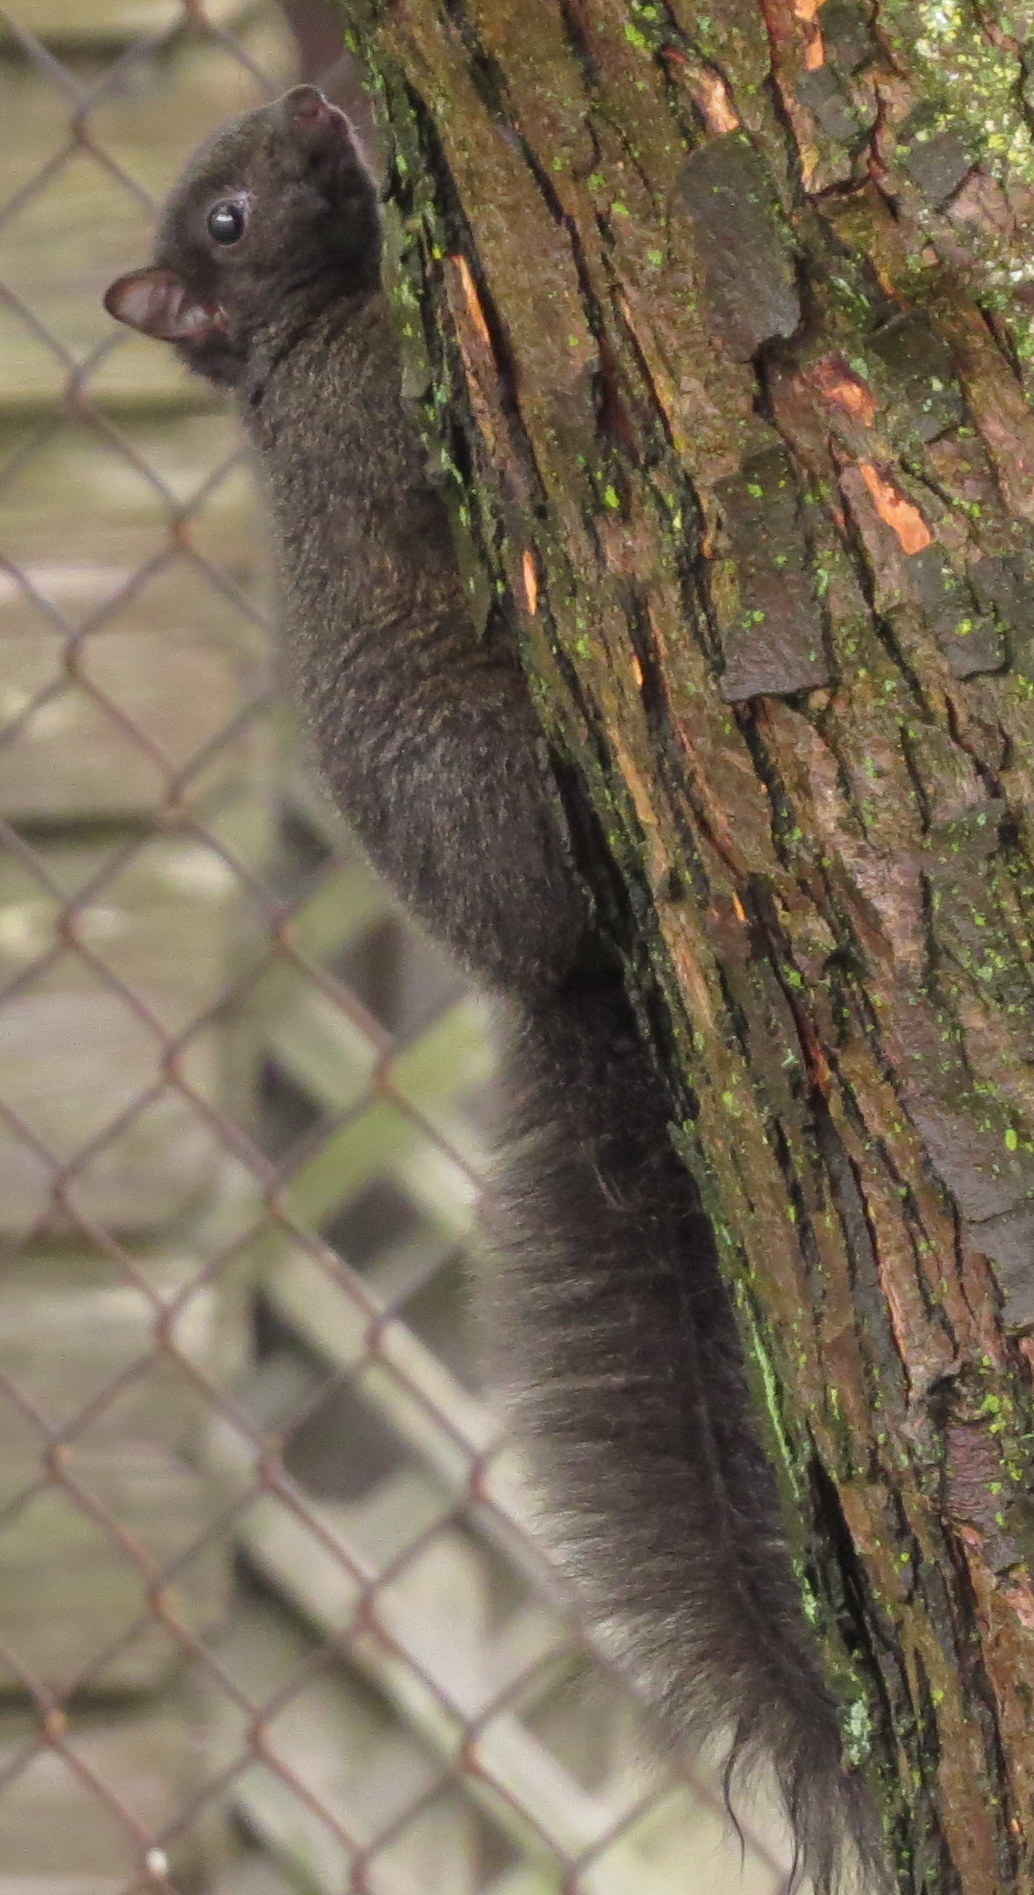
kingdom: Animalia
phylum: Chordata
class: Mammalia
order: Rodentia
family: Sciuridae
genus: Sciurus
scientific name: Sciurus carolinensis
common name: Eastern gray squirrel
